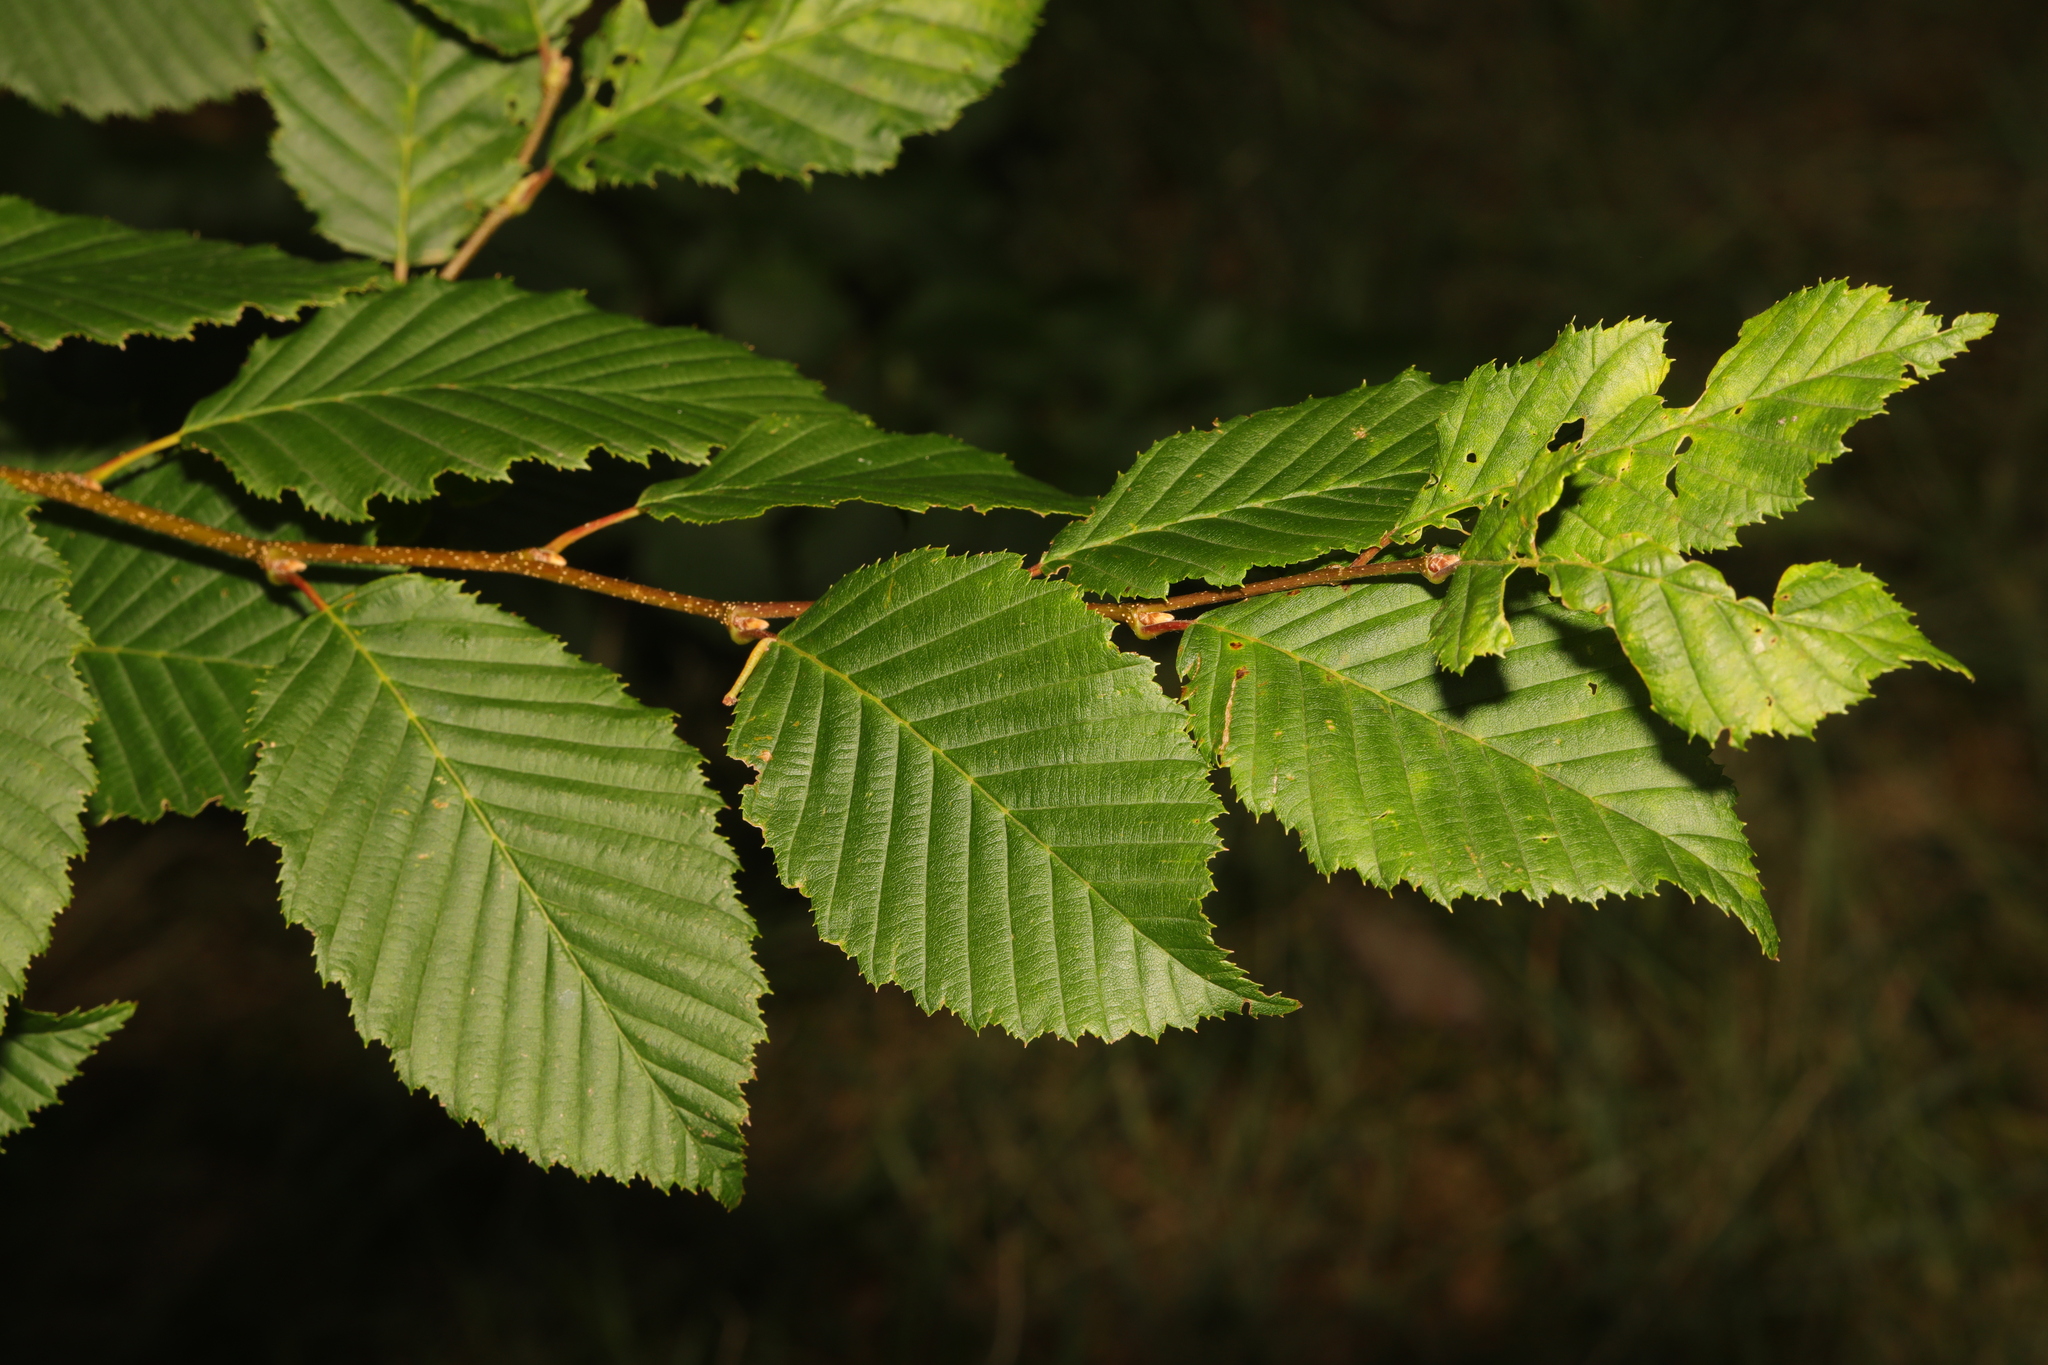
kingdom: Plantae
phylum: Tracheophyta
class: Magnoliopsida
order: Fagales
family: Betulaceae
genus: Carpinus
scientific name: Carpinus betulus
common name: Hornbeam
